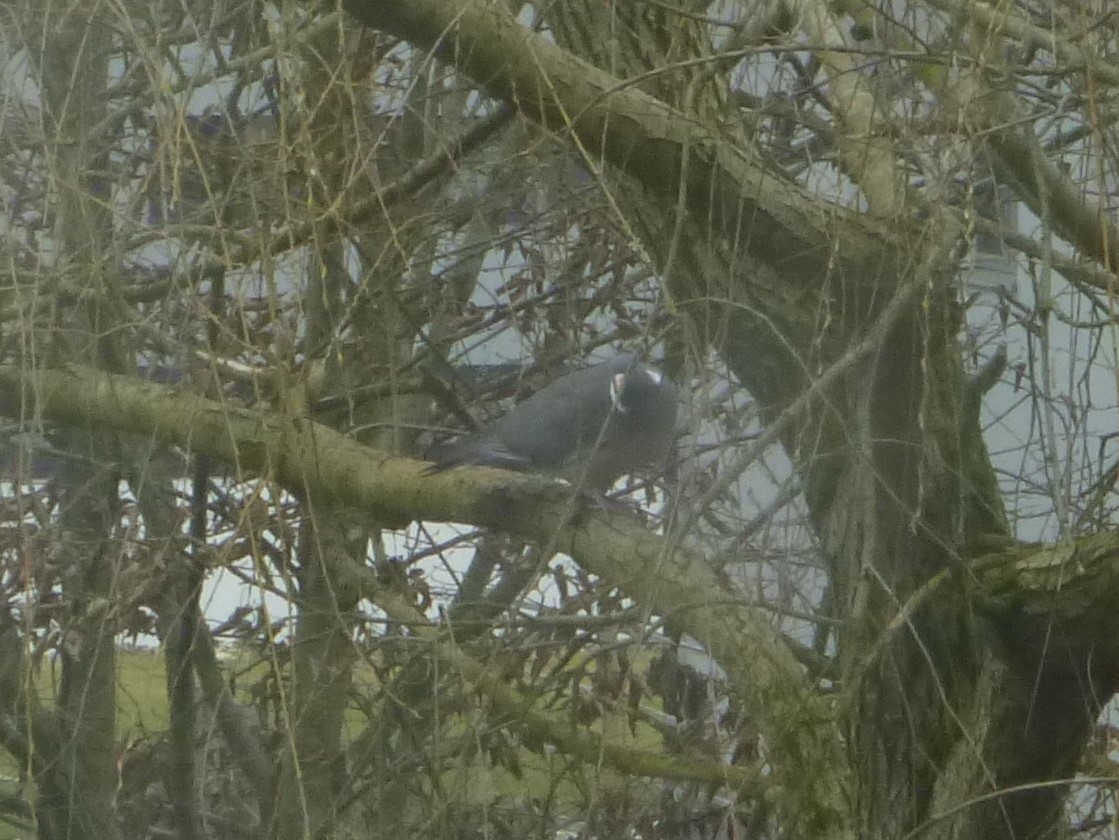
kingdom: Animalia
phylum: Chordata
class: Aves
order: Columbiformes
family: Columbidae
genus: Columba
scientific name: Columba palumbus
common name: Common wood pigeon
